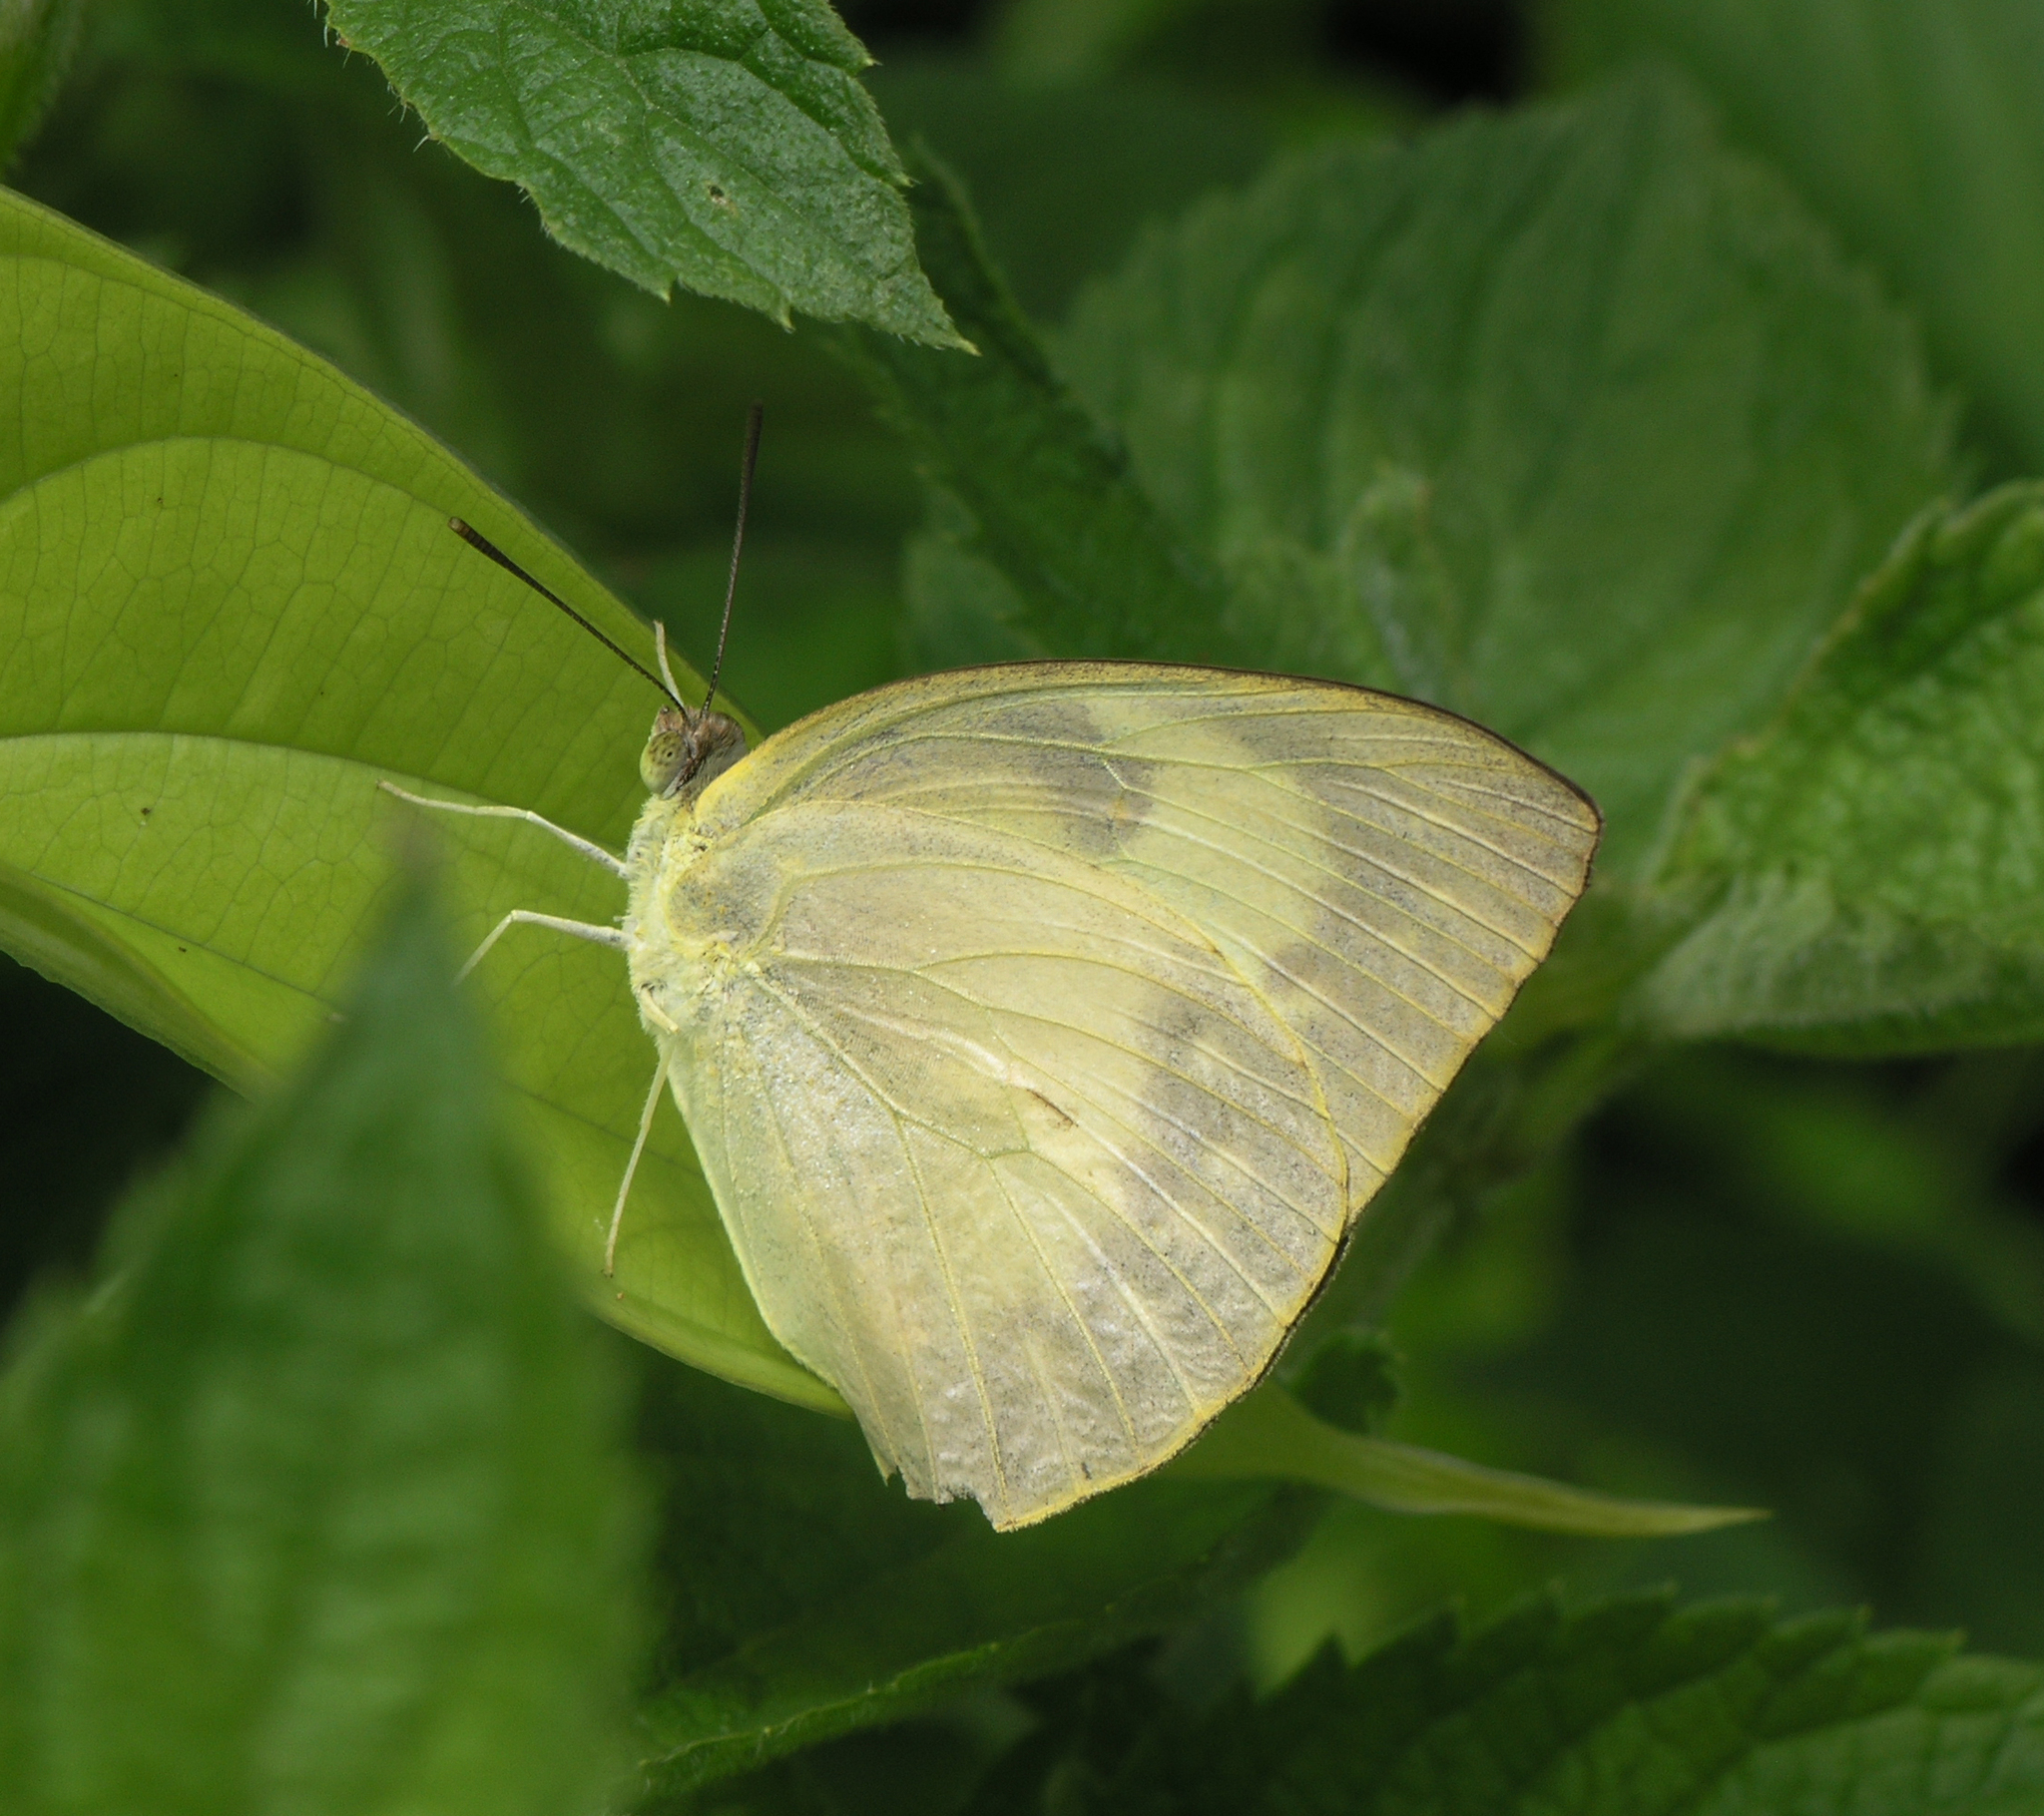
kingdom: Animalia
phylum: Arthropoda
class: Insecta
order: Lepidoptera
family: Pieridae
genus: Catopsilia
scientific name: Catopsilia pomona
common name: Common emigrant
